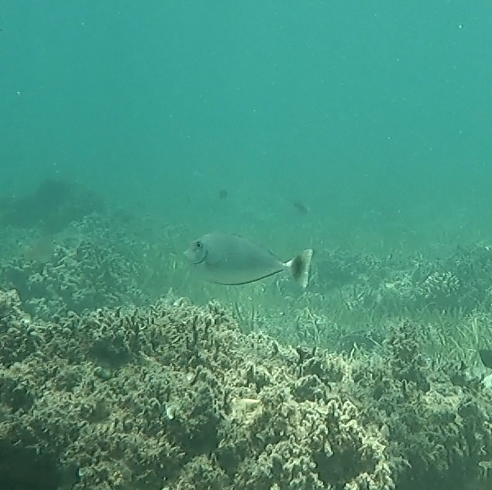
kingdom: Animalia
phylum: Chordata
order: Perciformes
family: Acanthuridae
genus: Naso
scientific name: Naso annulatus
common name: Whitemargin unicornfish
